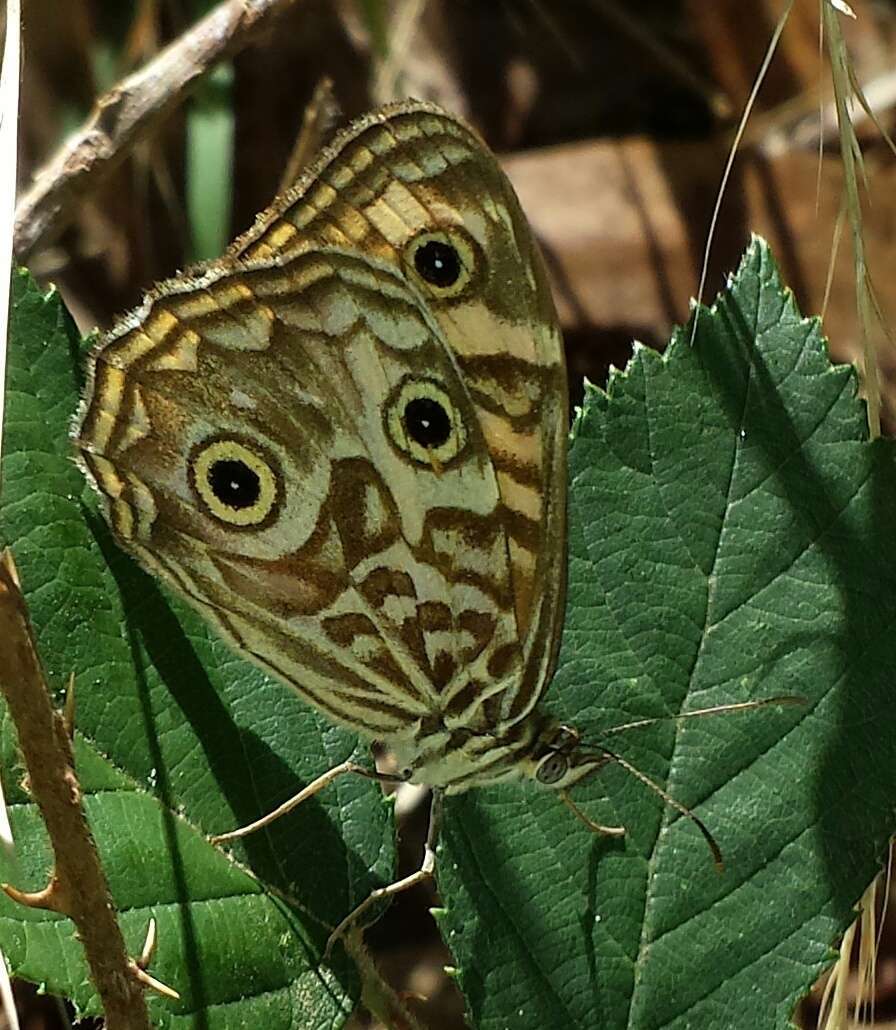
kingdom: Animalia
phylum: Arthropoda
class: Insecta
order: Lepidoptera
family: Nymphalidae
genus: Geitoneura
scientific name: Geitoneura acantha
